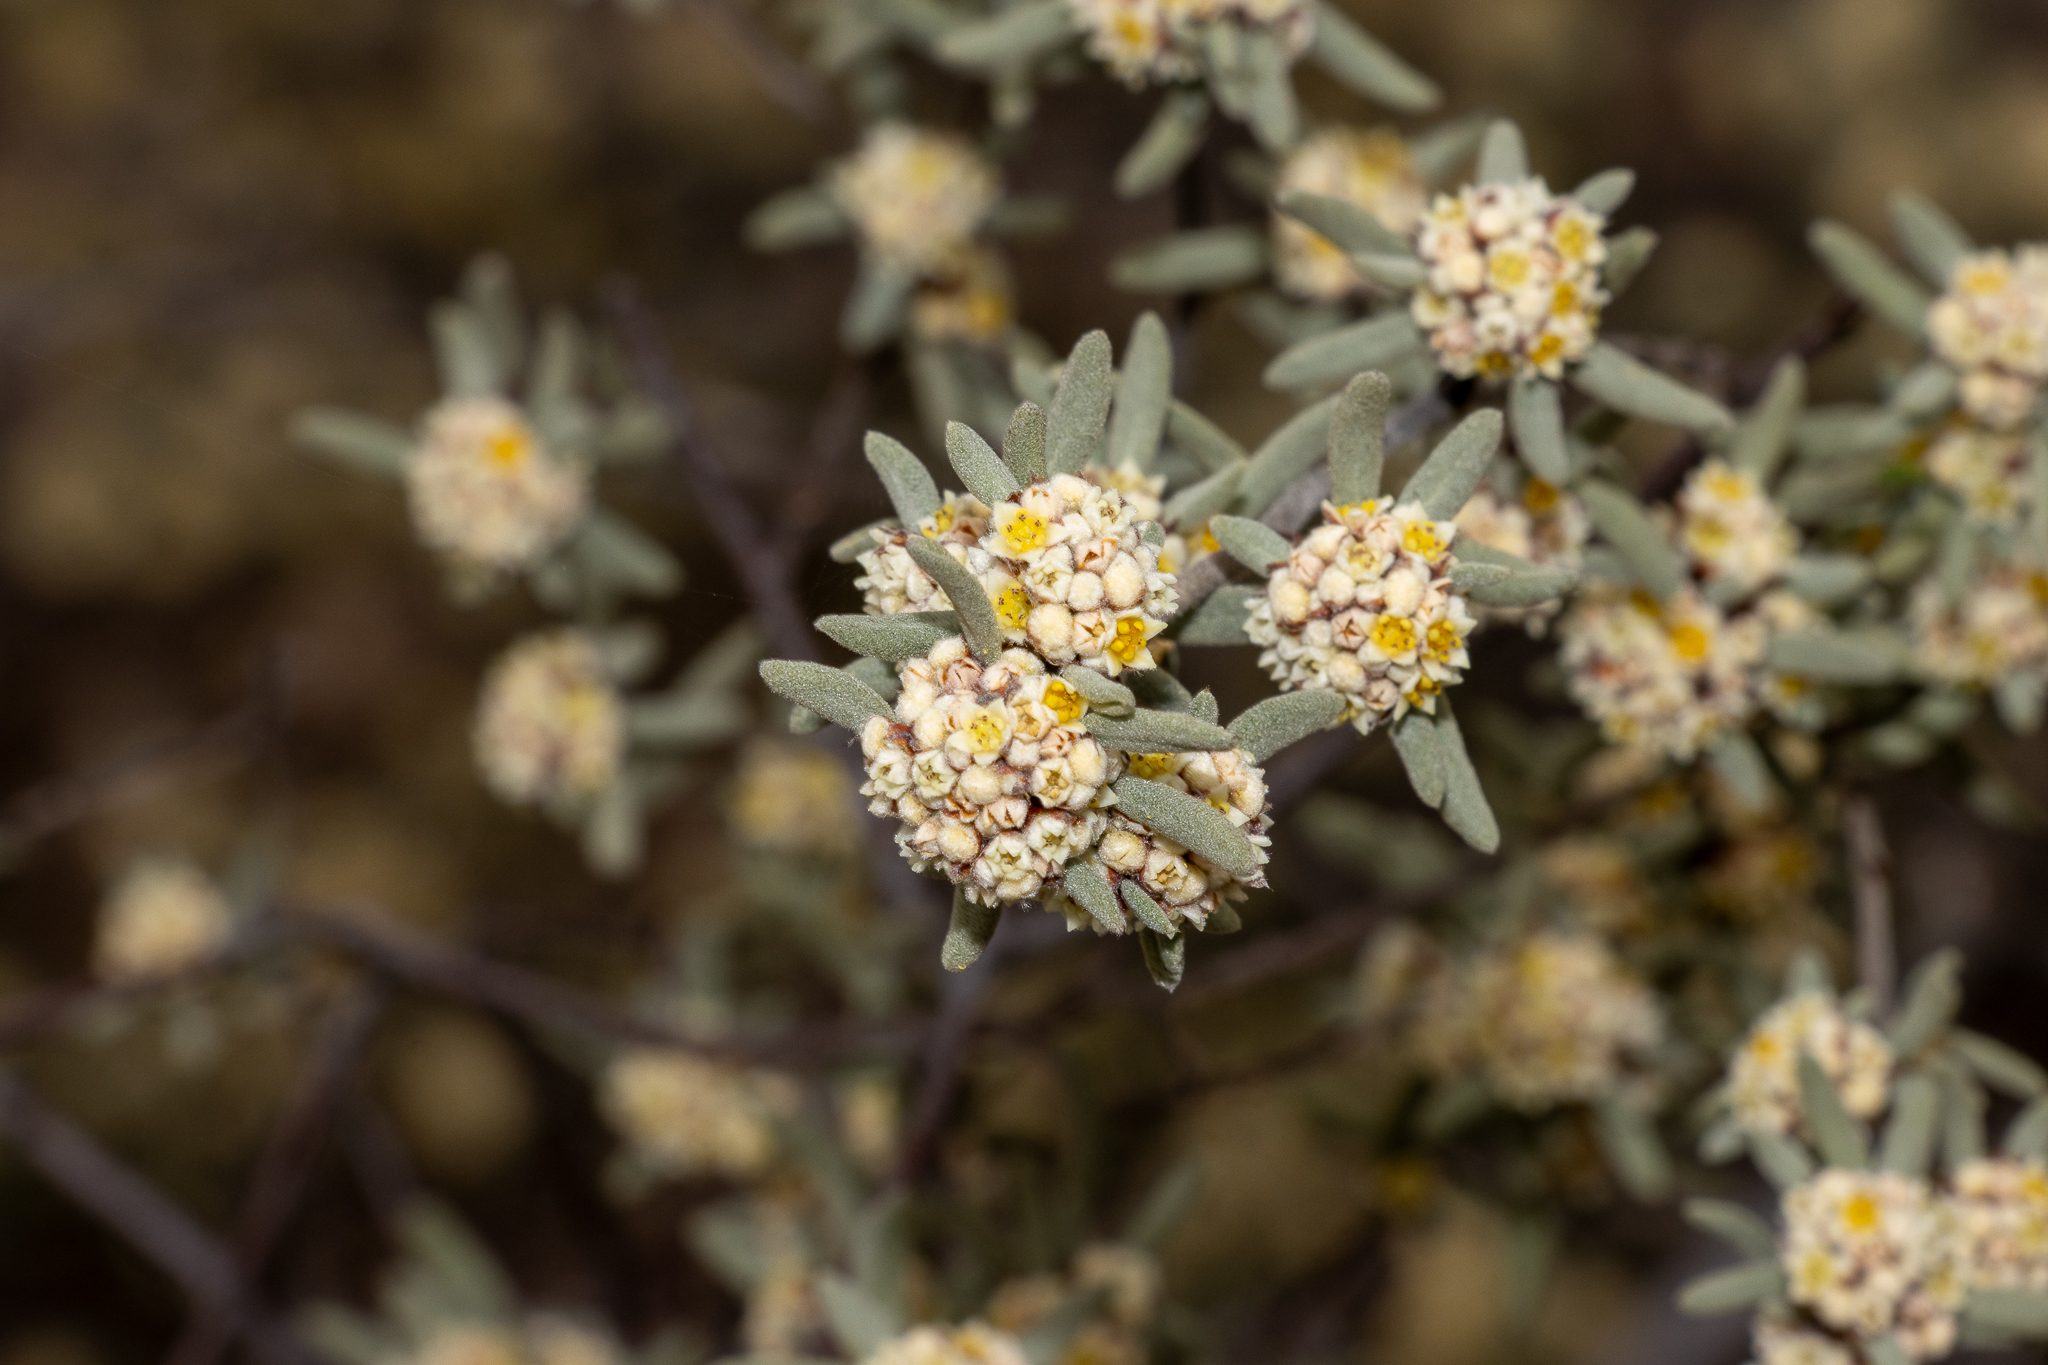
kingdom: Plantae
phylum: Tracheophyta
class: Magnoliopsida
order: Rosales
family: Rhamnaceae
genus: Spyridium
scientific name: Spyridium subochreatum
